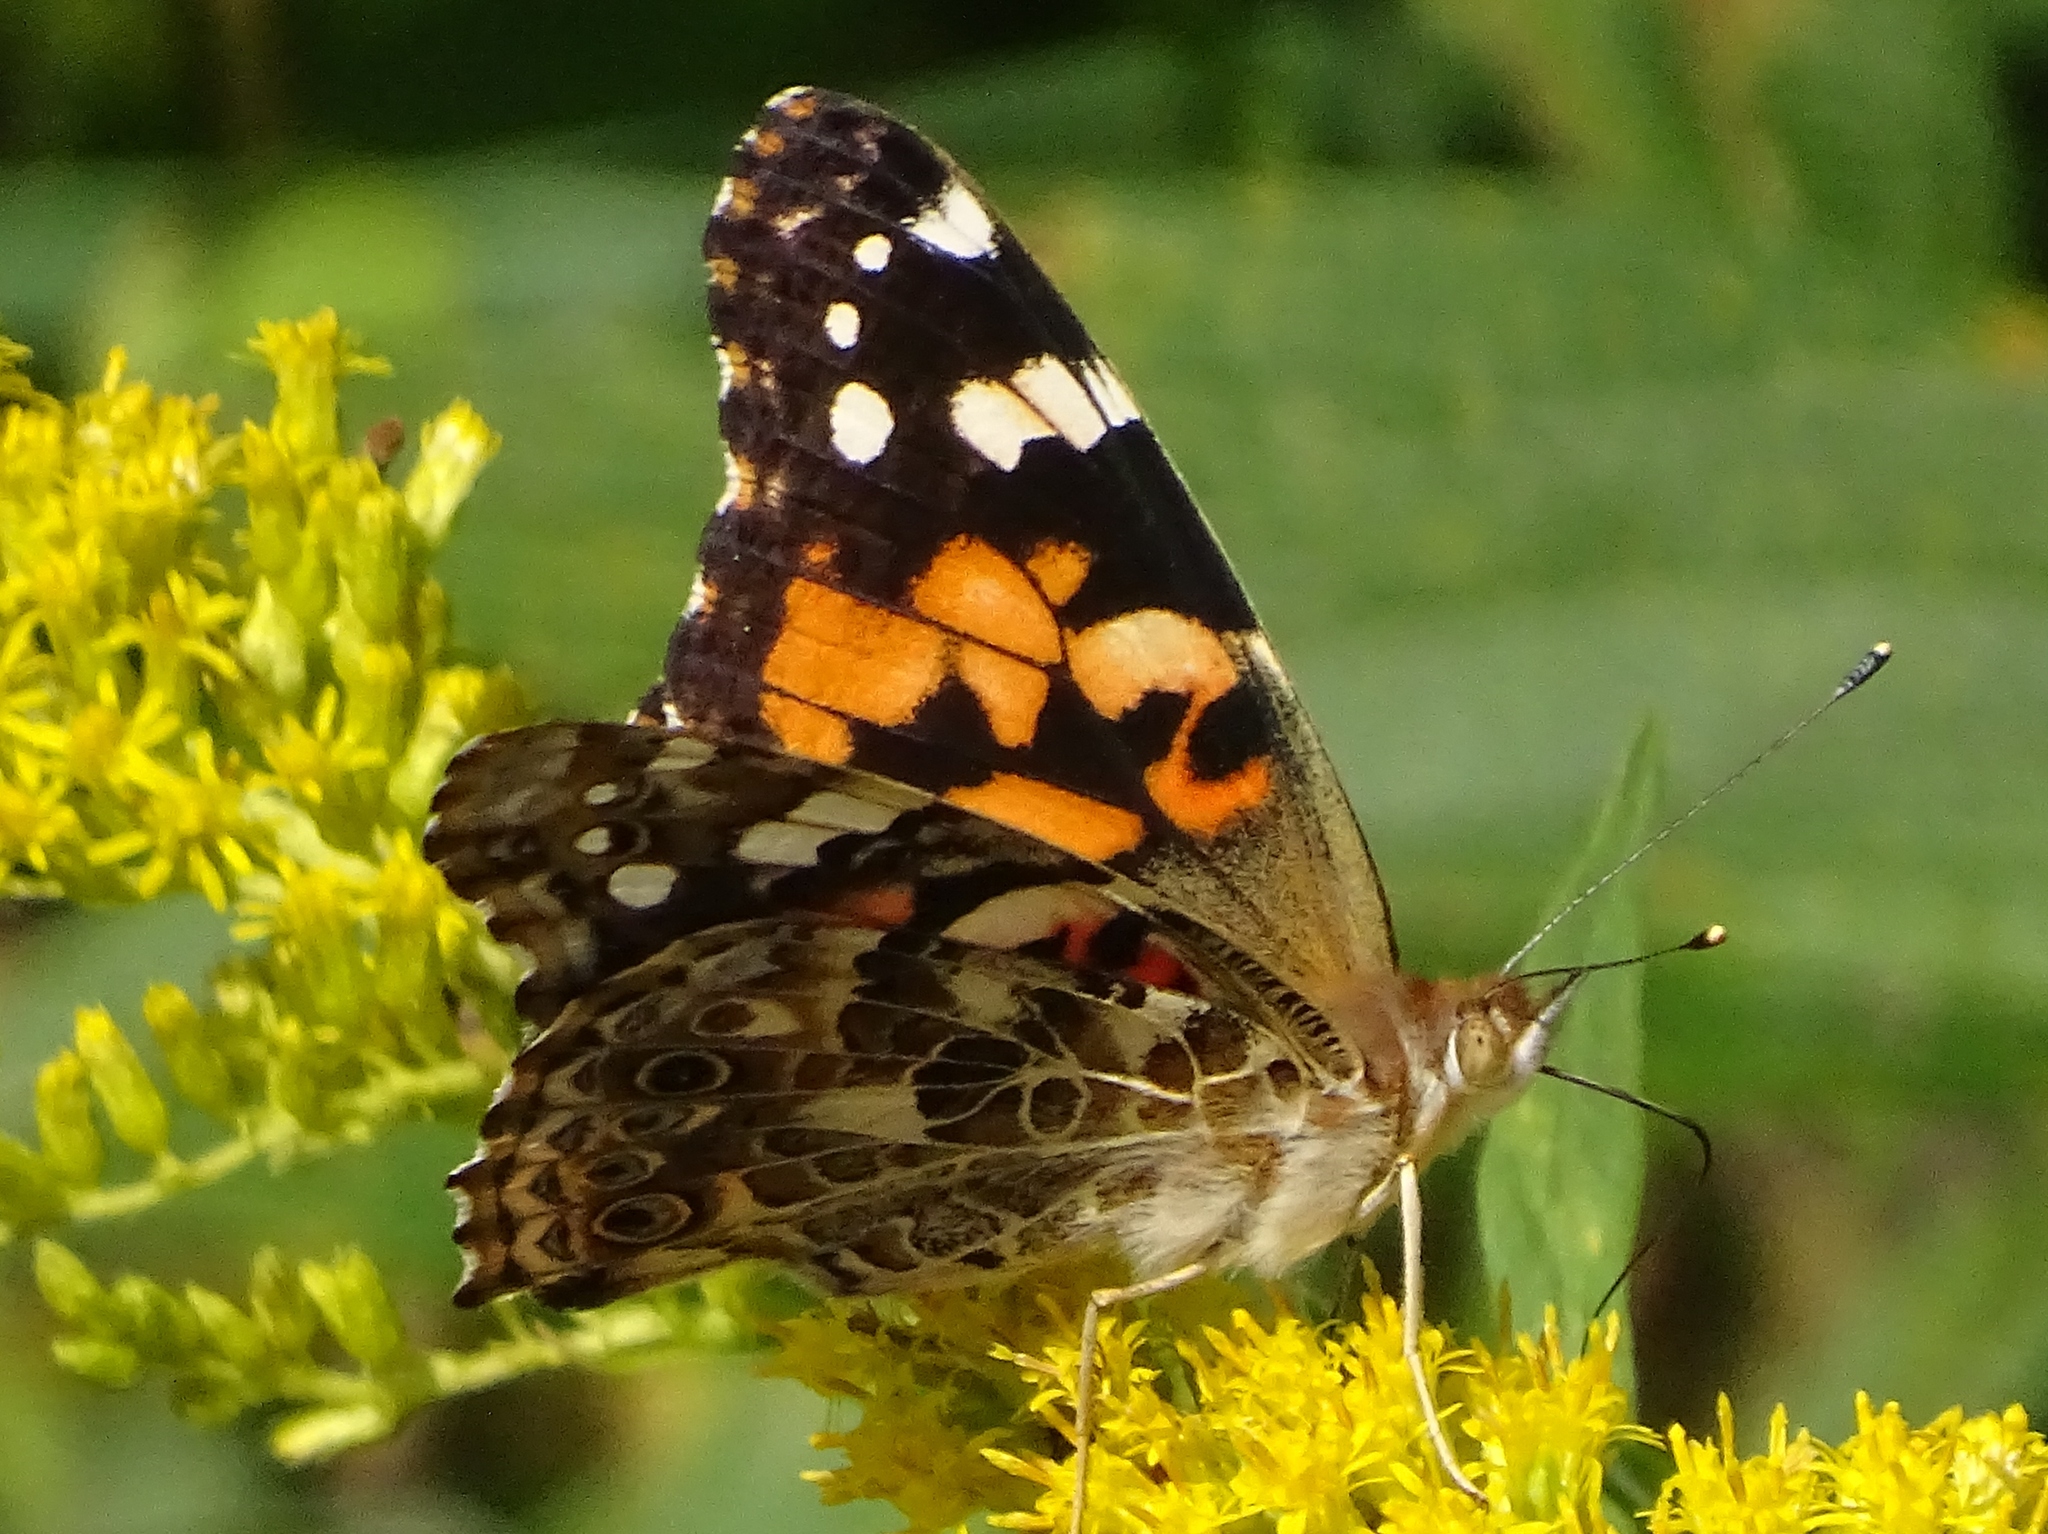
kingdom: Animalia
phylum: Arthropoda
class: Insecta
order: Lepidoptera
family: Nymphalidae
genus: Vanessa
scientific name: Vanessa cardui
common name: Painted lady
